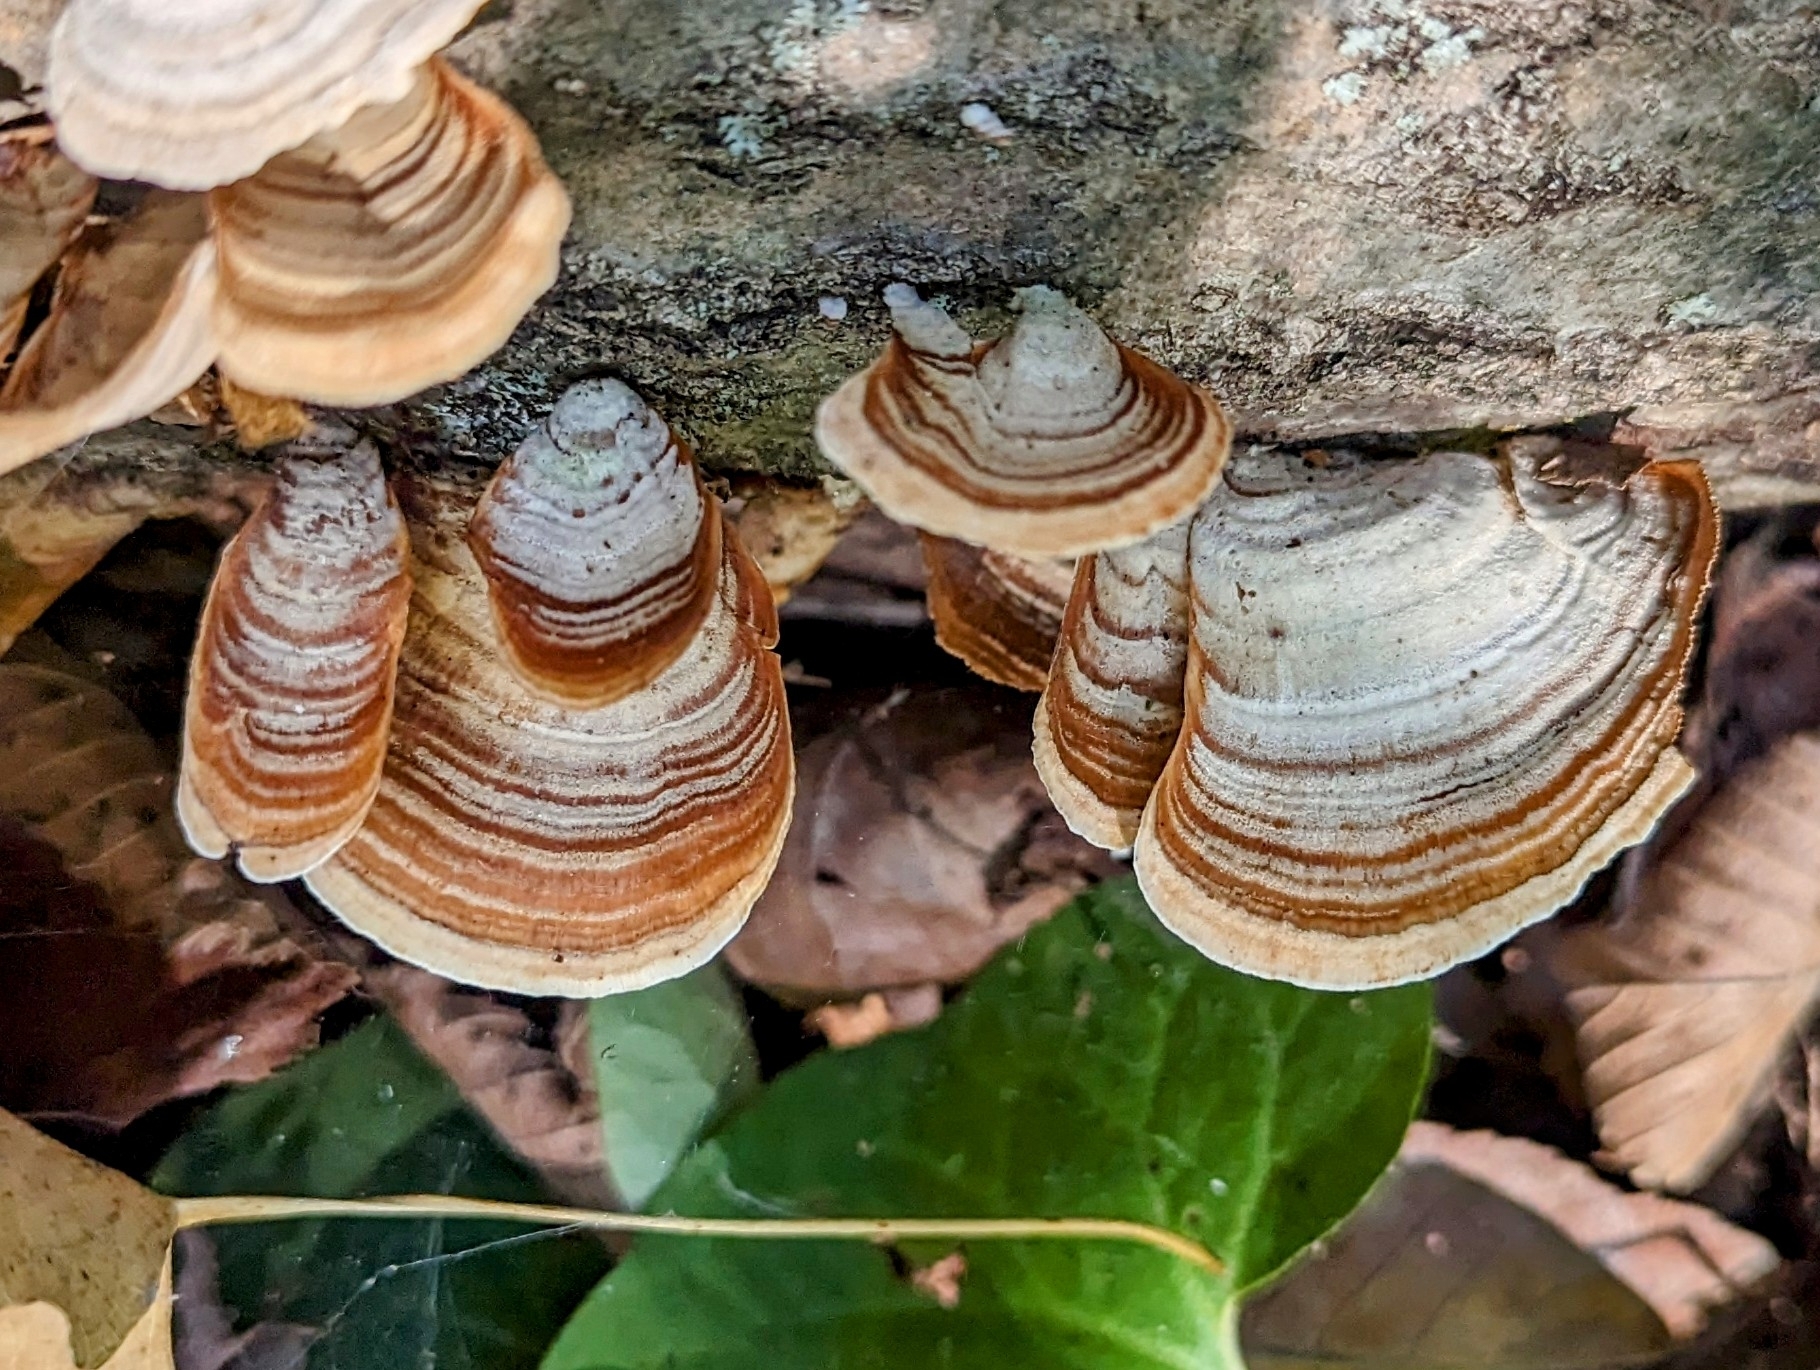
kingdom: Fungi
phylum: Basidiomycota
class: Agaricomycetes
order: Russulales
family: Stereaceae
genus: Stereum
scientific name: Stereum lobatum
